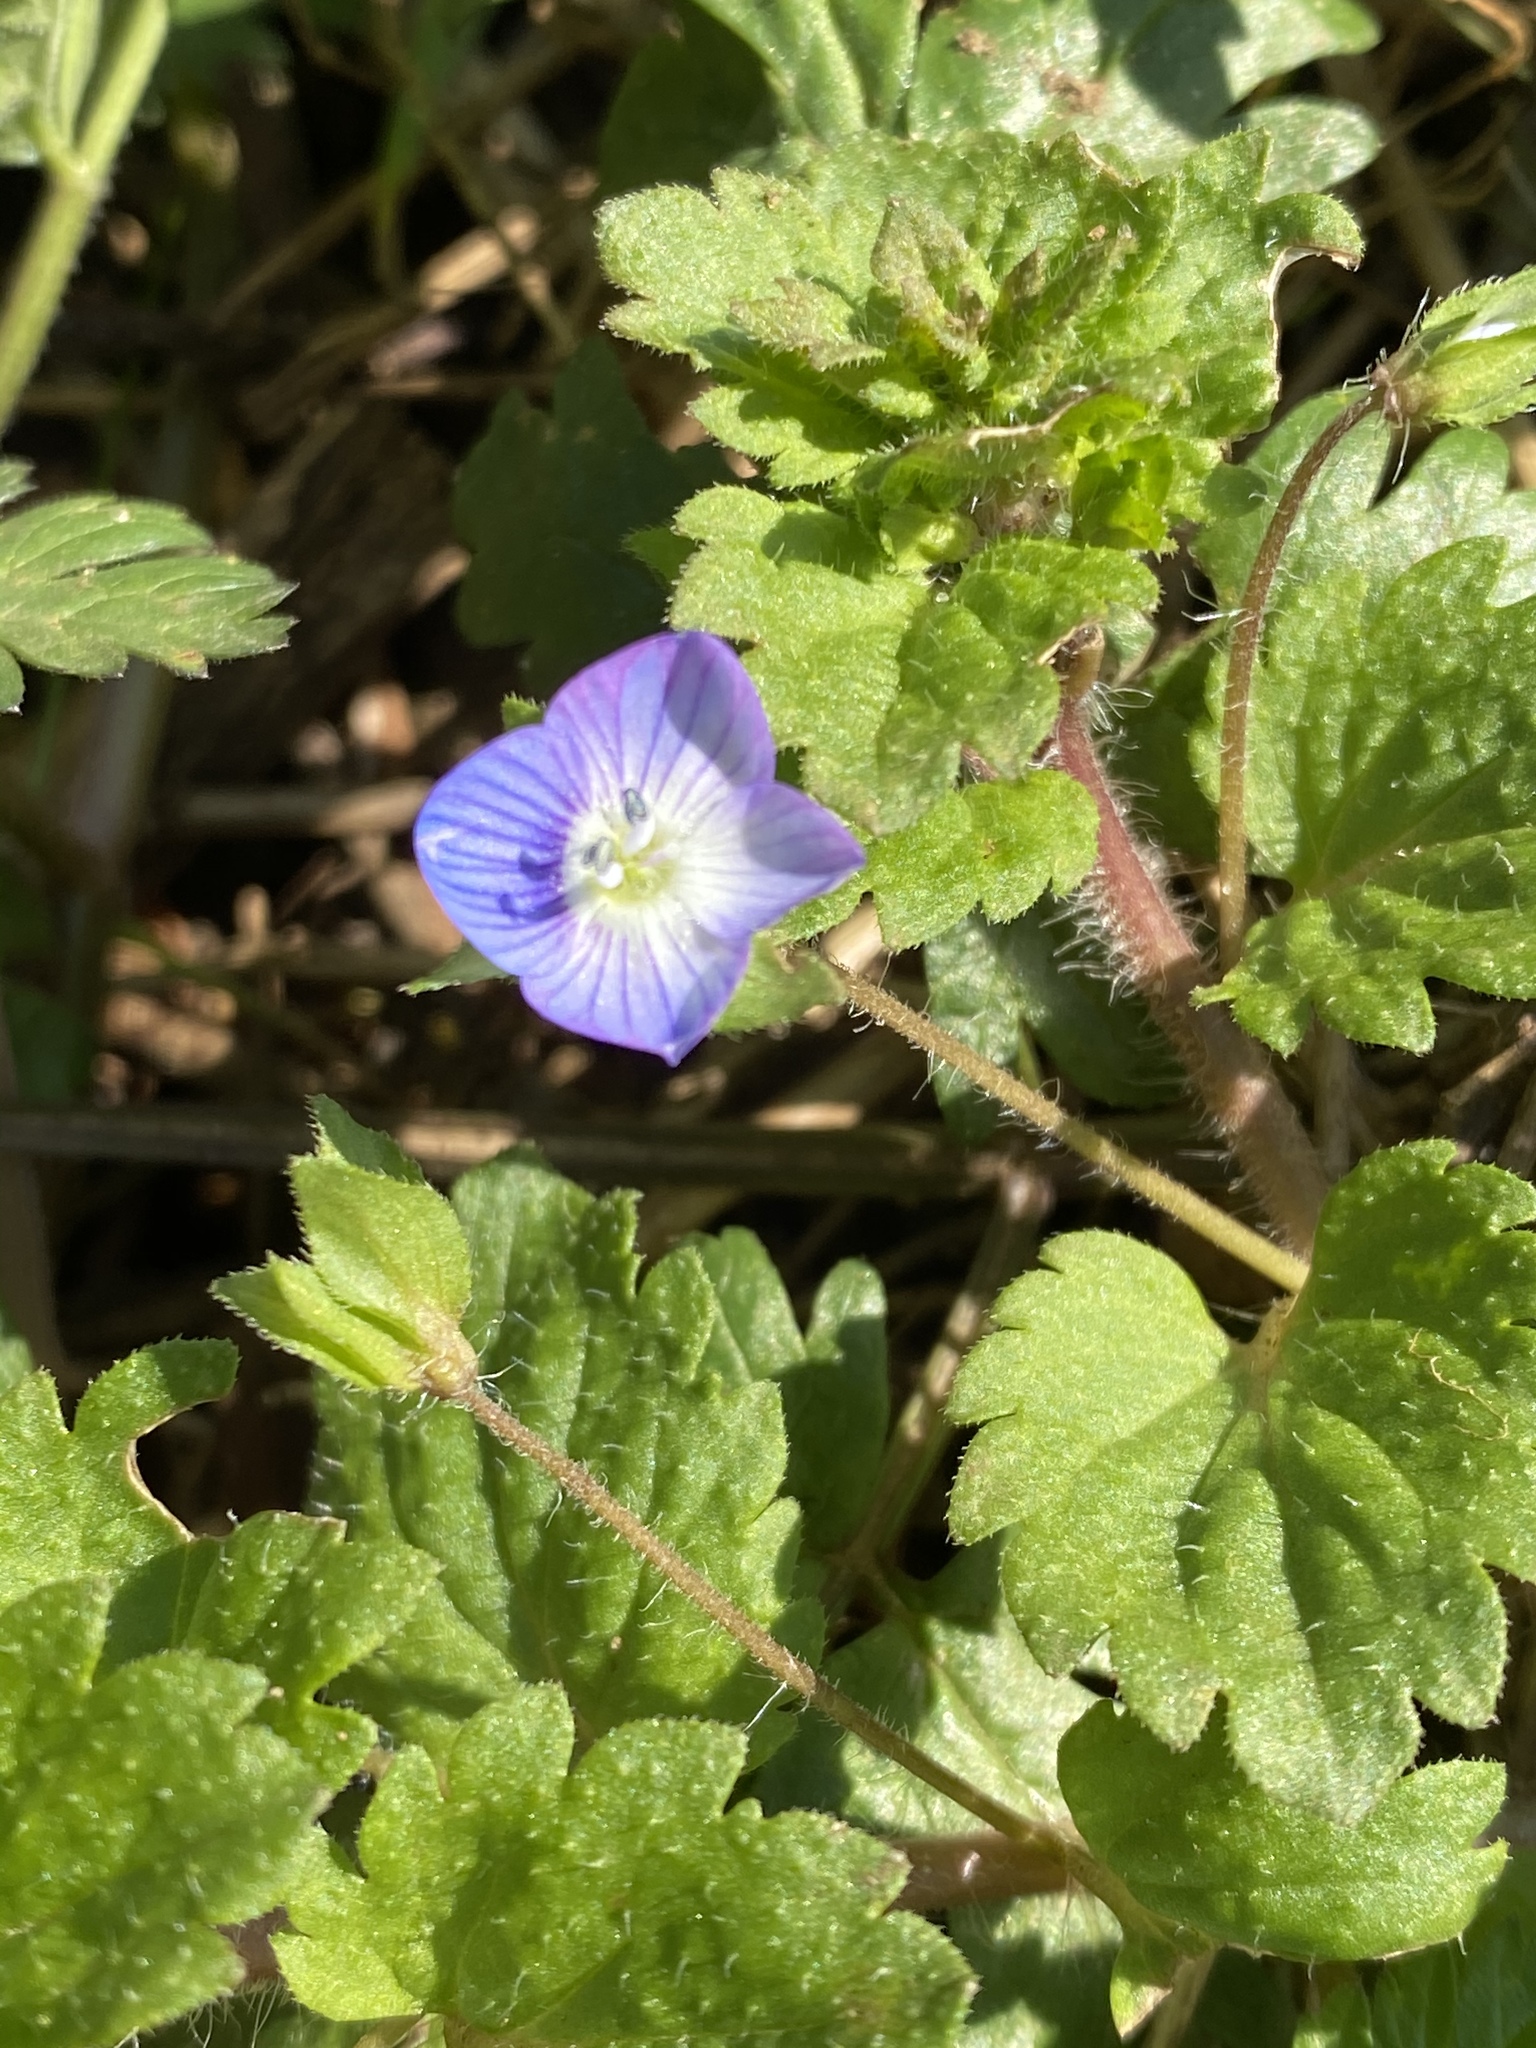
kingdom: Plantae
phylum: Tracheophyta
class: Magnoliopsida
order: Lamiales
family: Plantaginaceae
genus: Veronica
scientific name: Veronica persica
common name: Common field-speedwell
